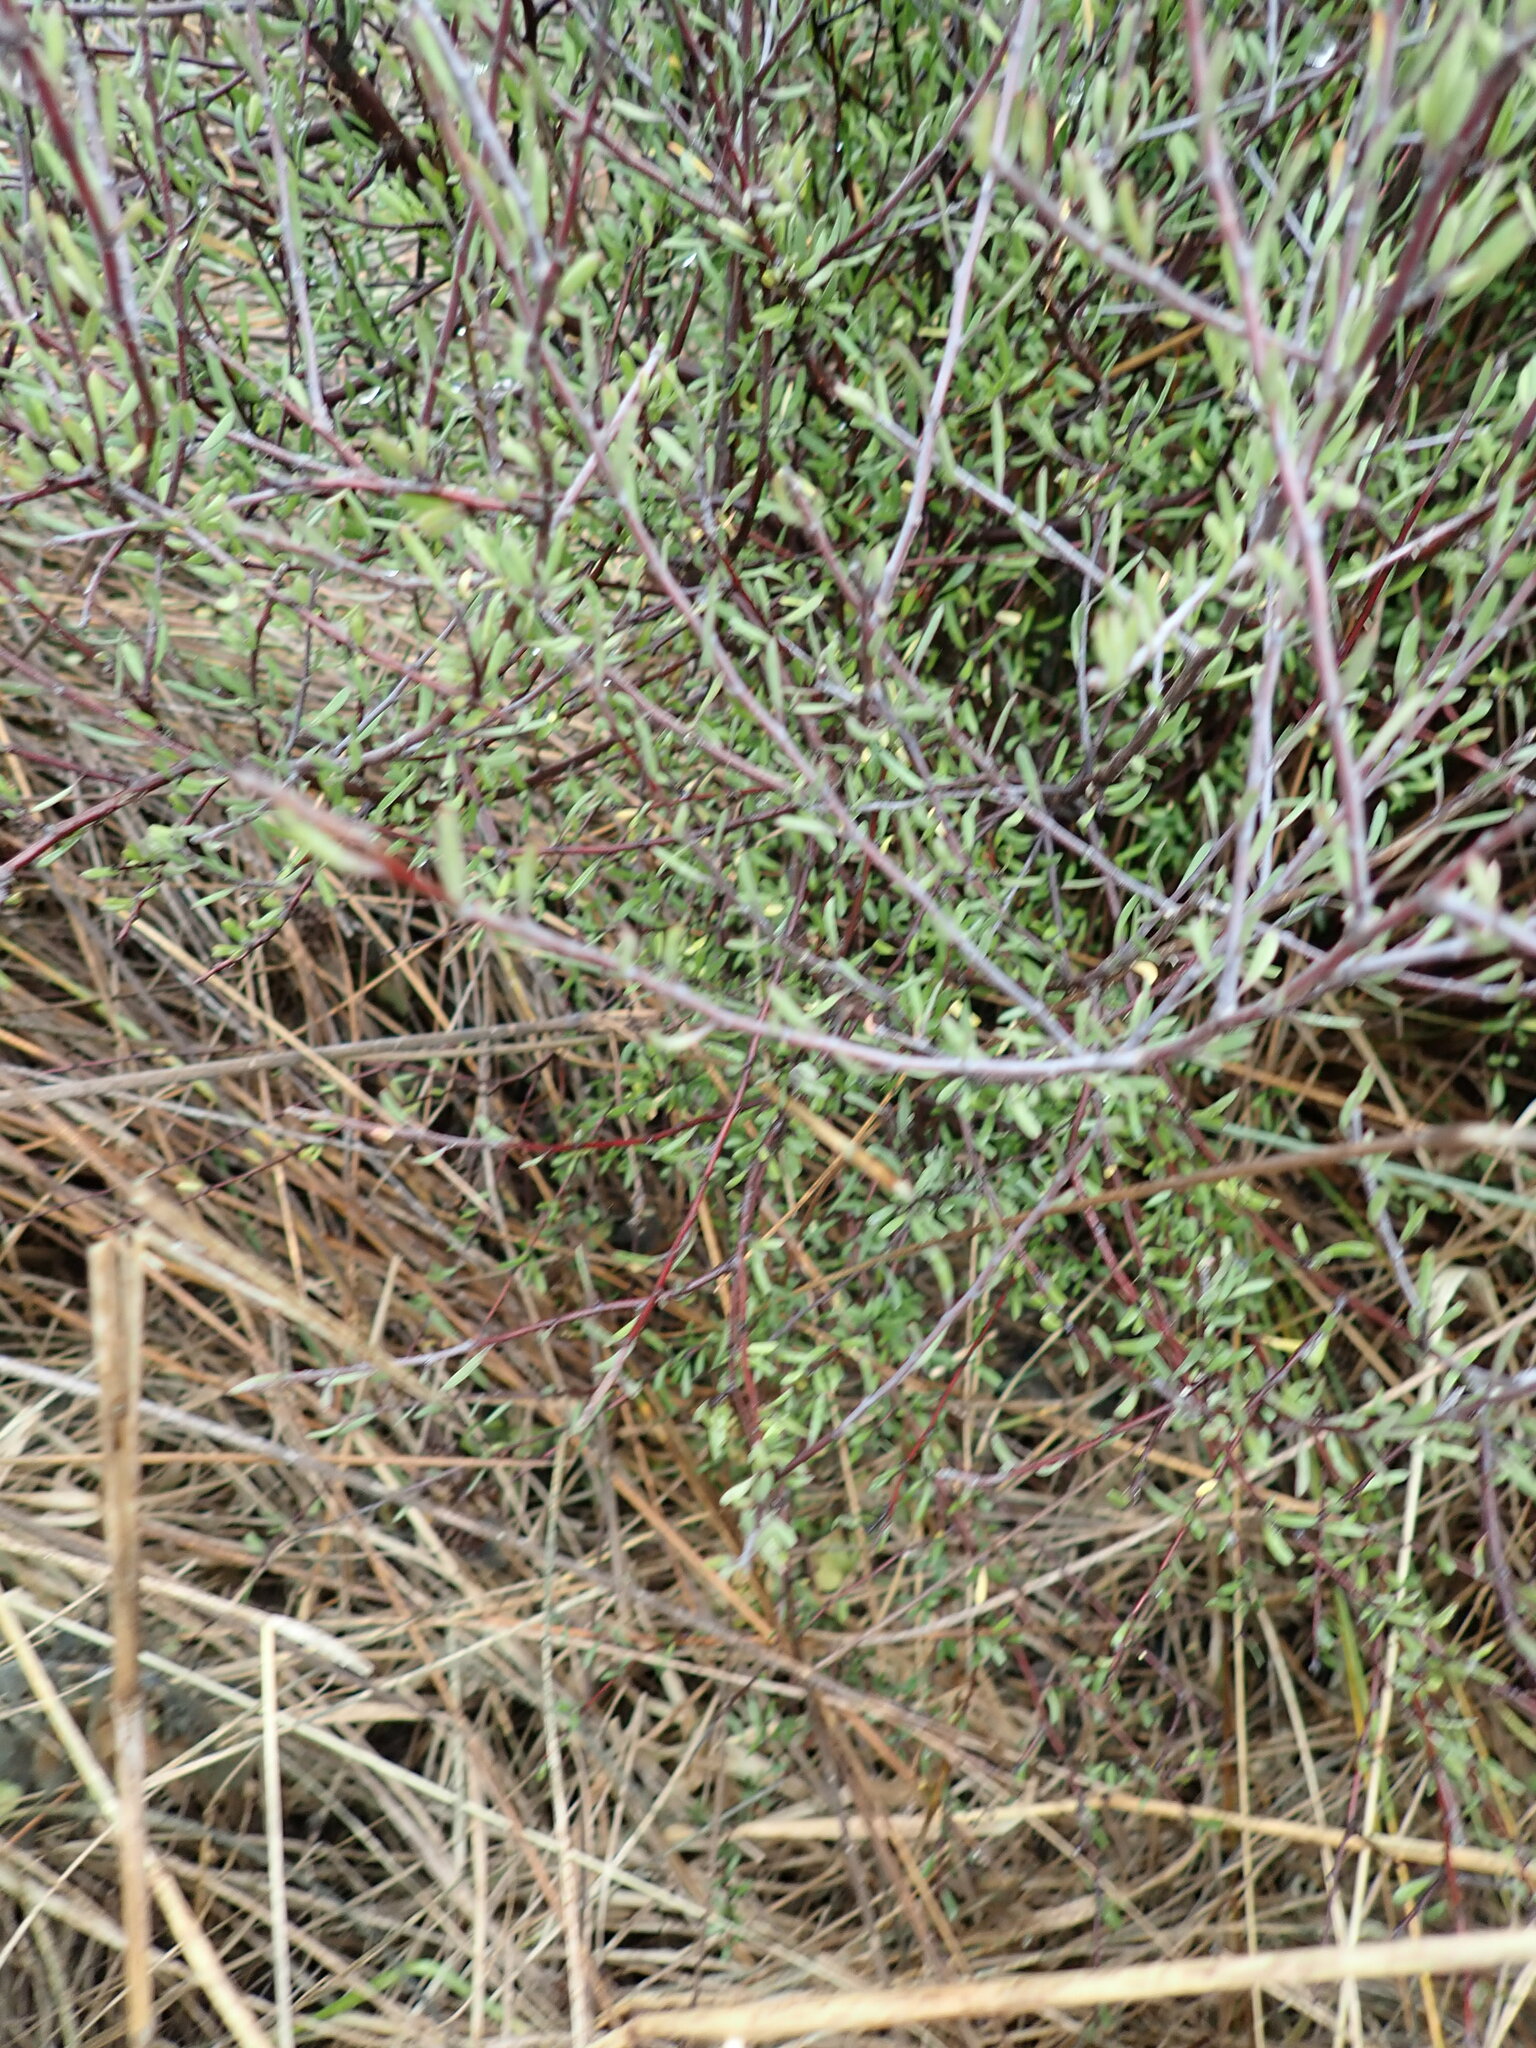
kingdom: Plantae
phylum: Tracheophyta
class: Magnoliopsida
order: Malvales
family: Malvaceae
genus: Plagianthus
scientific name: Plagianthus divaricatus
